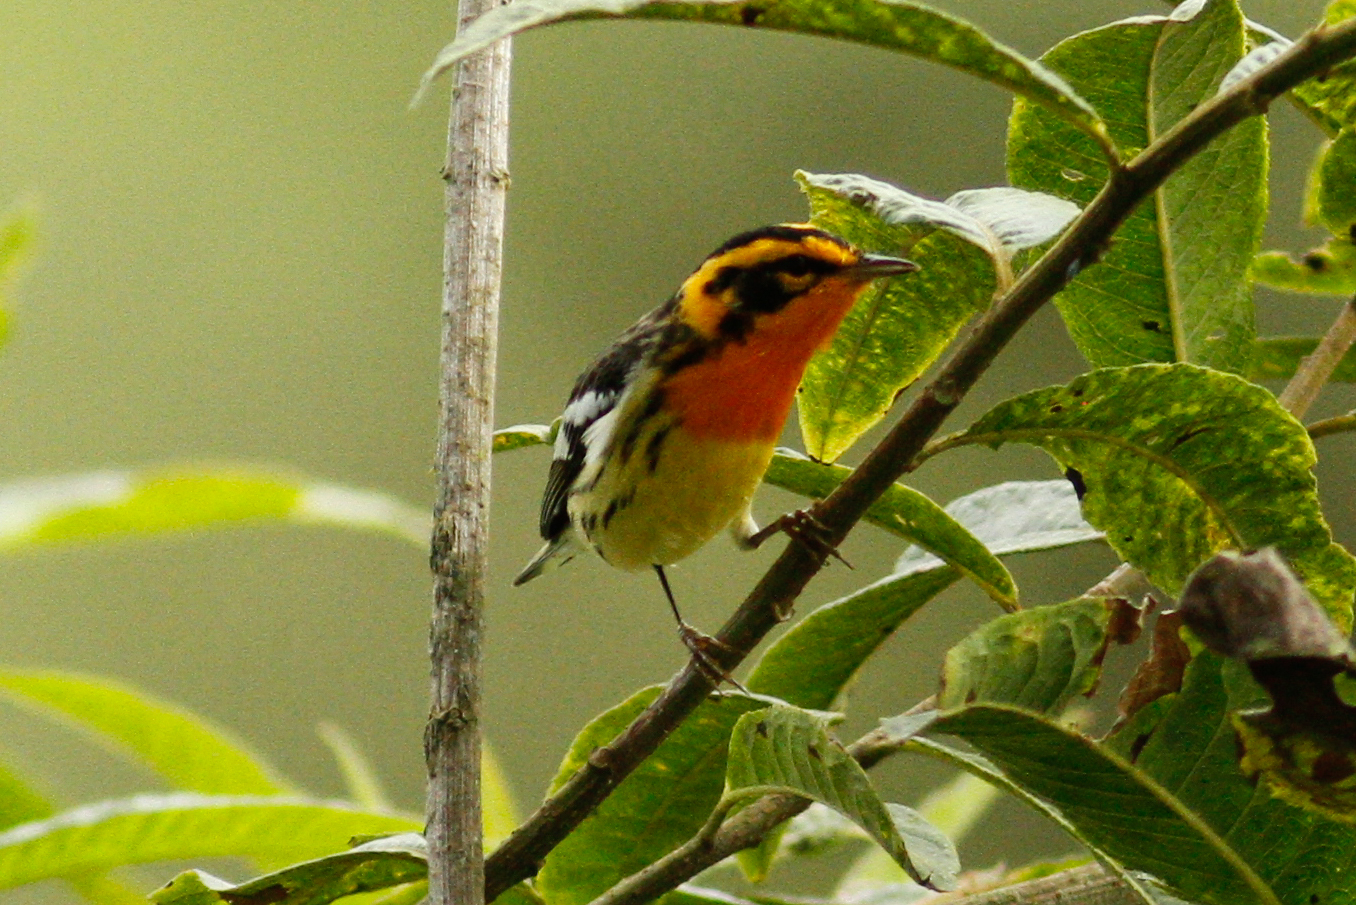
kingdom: Animalia
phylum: Chordata
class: Aves
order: Passeriformes
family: Parulidae
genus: Setophaga
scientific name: Setophaga fusca
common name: Blackburnian warbler
